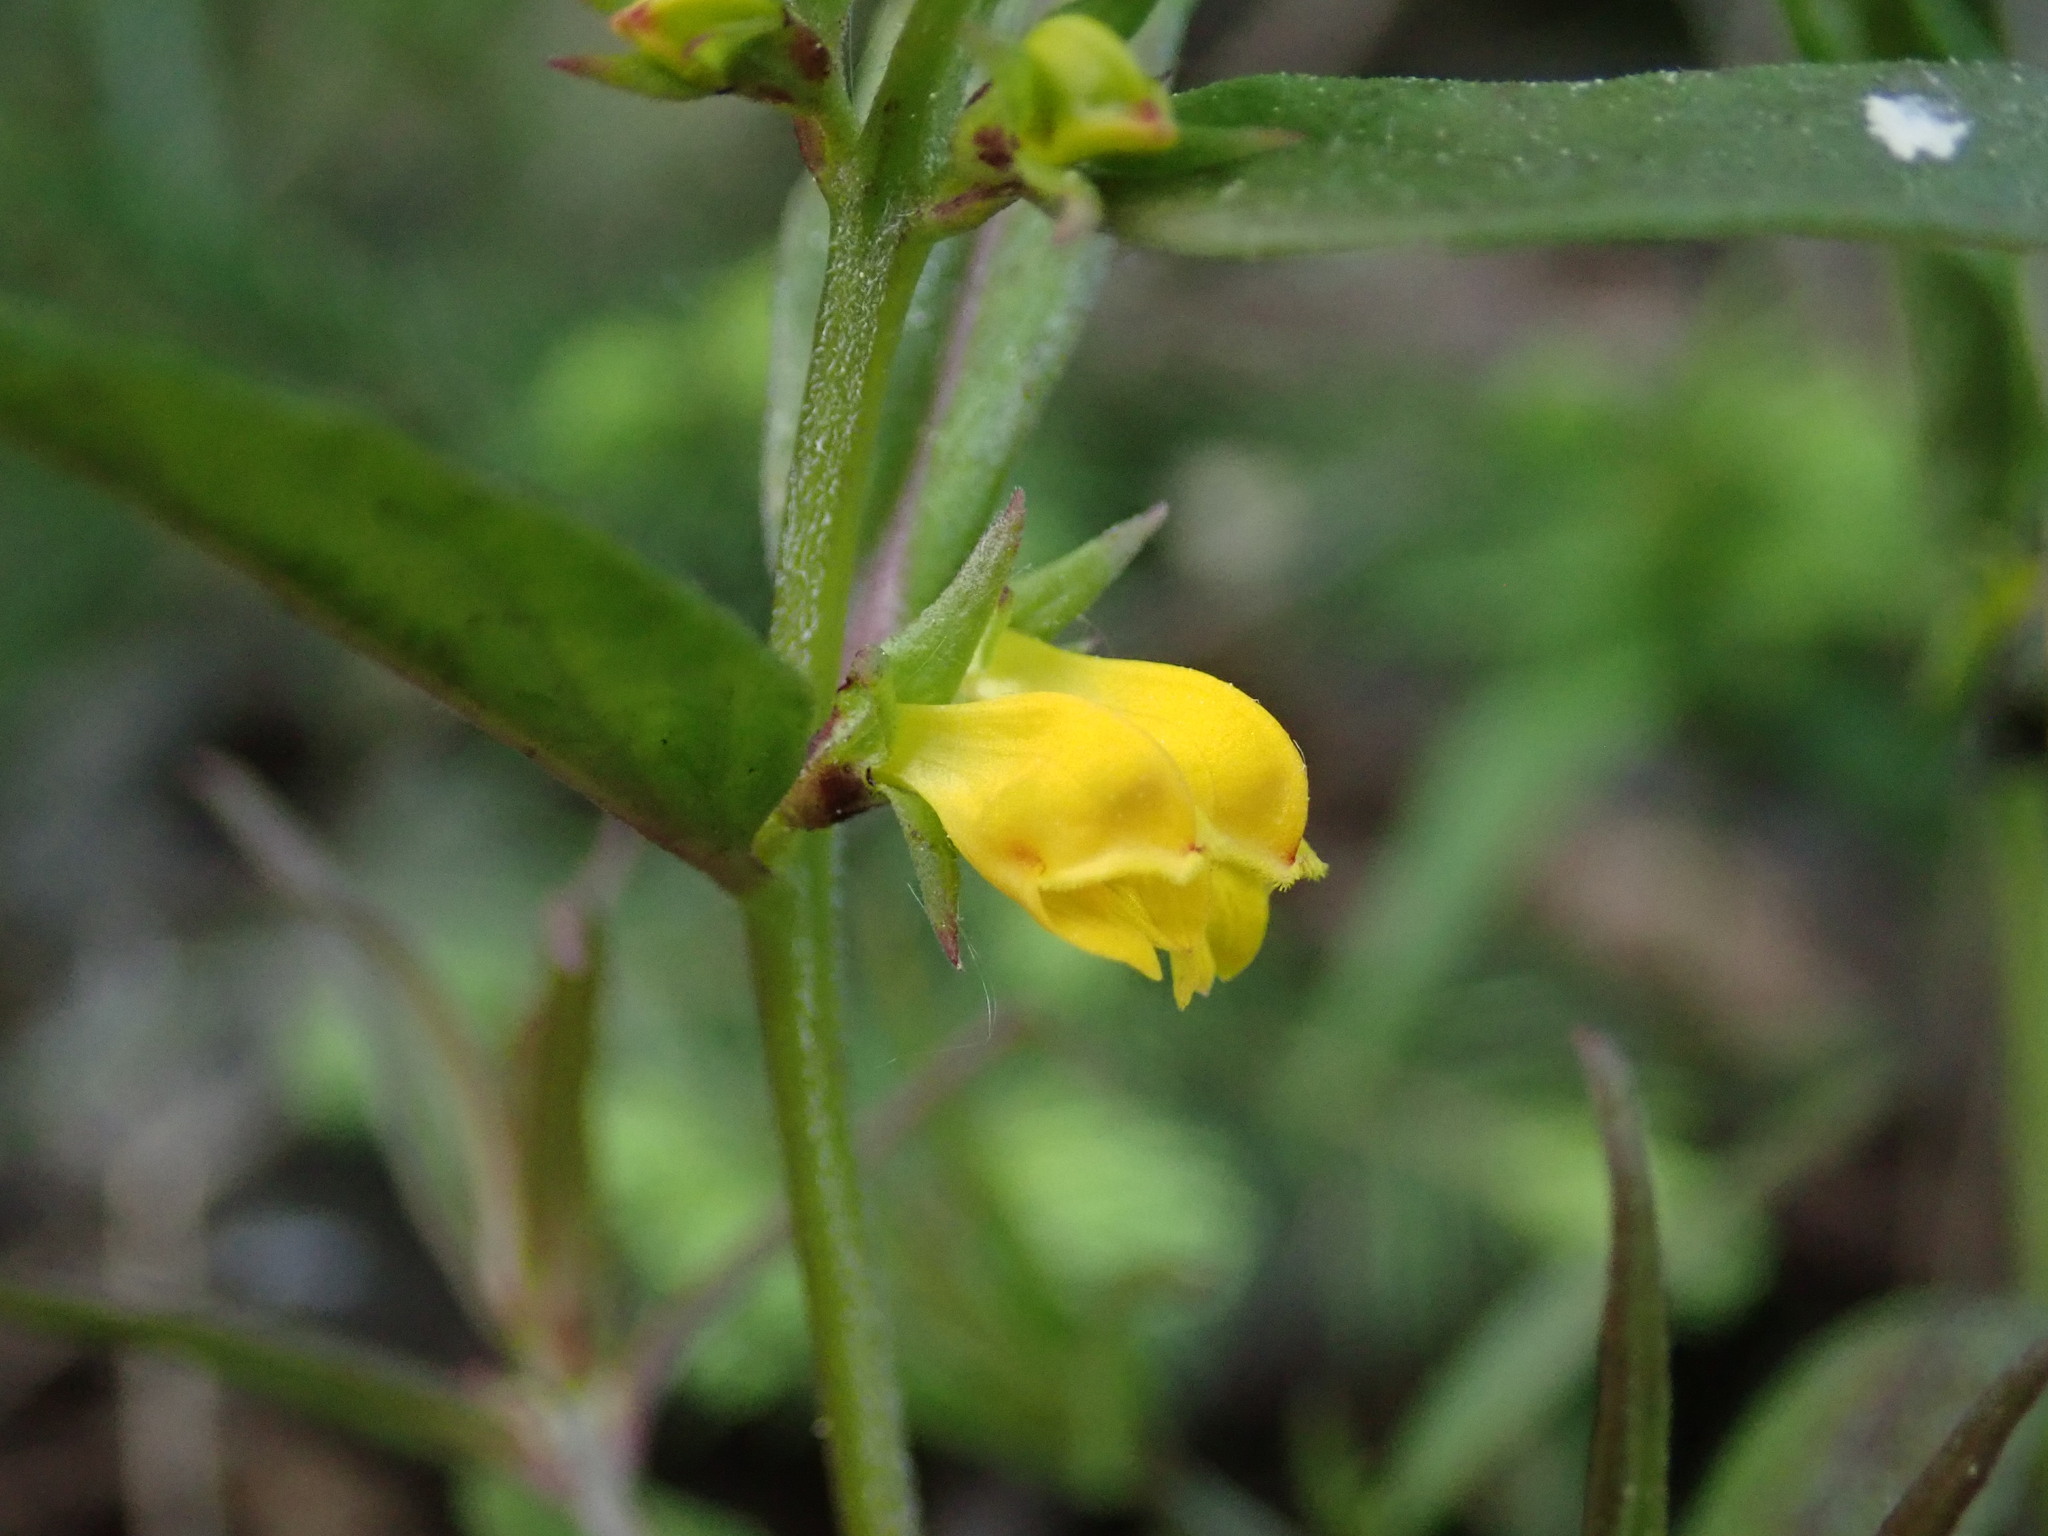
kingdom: Plantae
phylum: Tracheophyta
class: Magnoliopsida
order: Lamiales
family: Orobanchaceae
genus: Melampyrum
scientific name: Melampyrum sylvaticum
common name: Small cow-wheat
